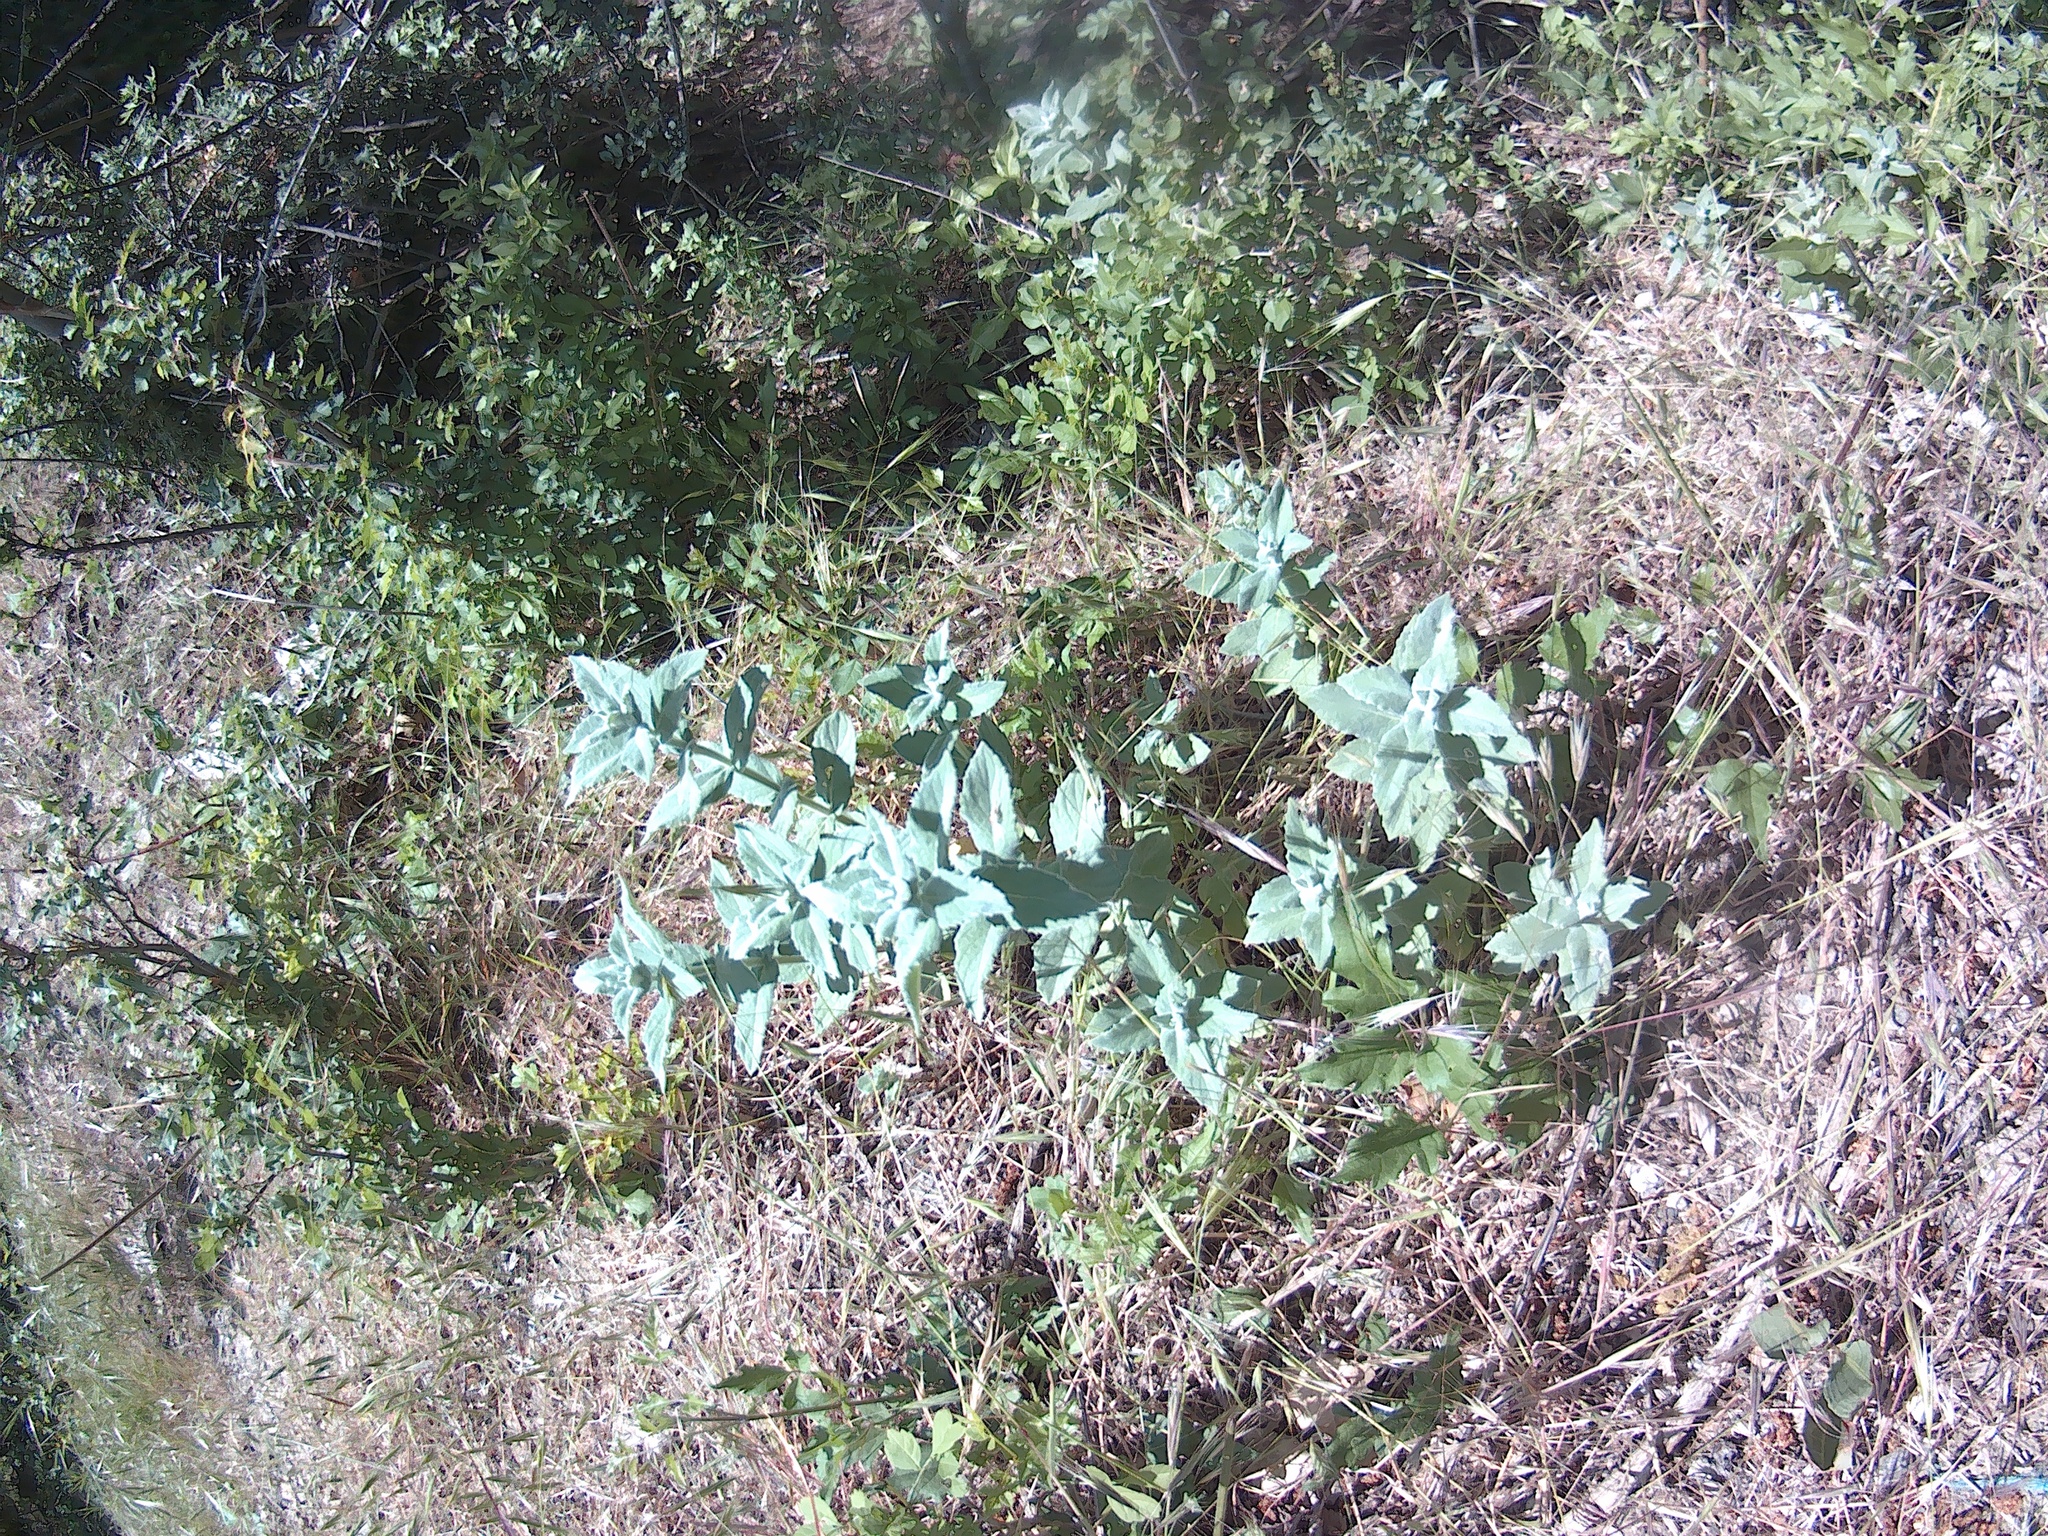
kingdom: Plantae
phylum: Tracheophyta
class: Magnoliopsida
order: Lamiales
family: Lamiaceae
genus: Mentha
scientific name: Mentha longifolia
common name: Horse mint
